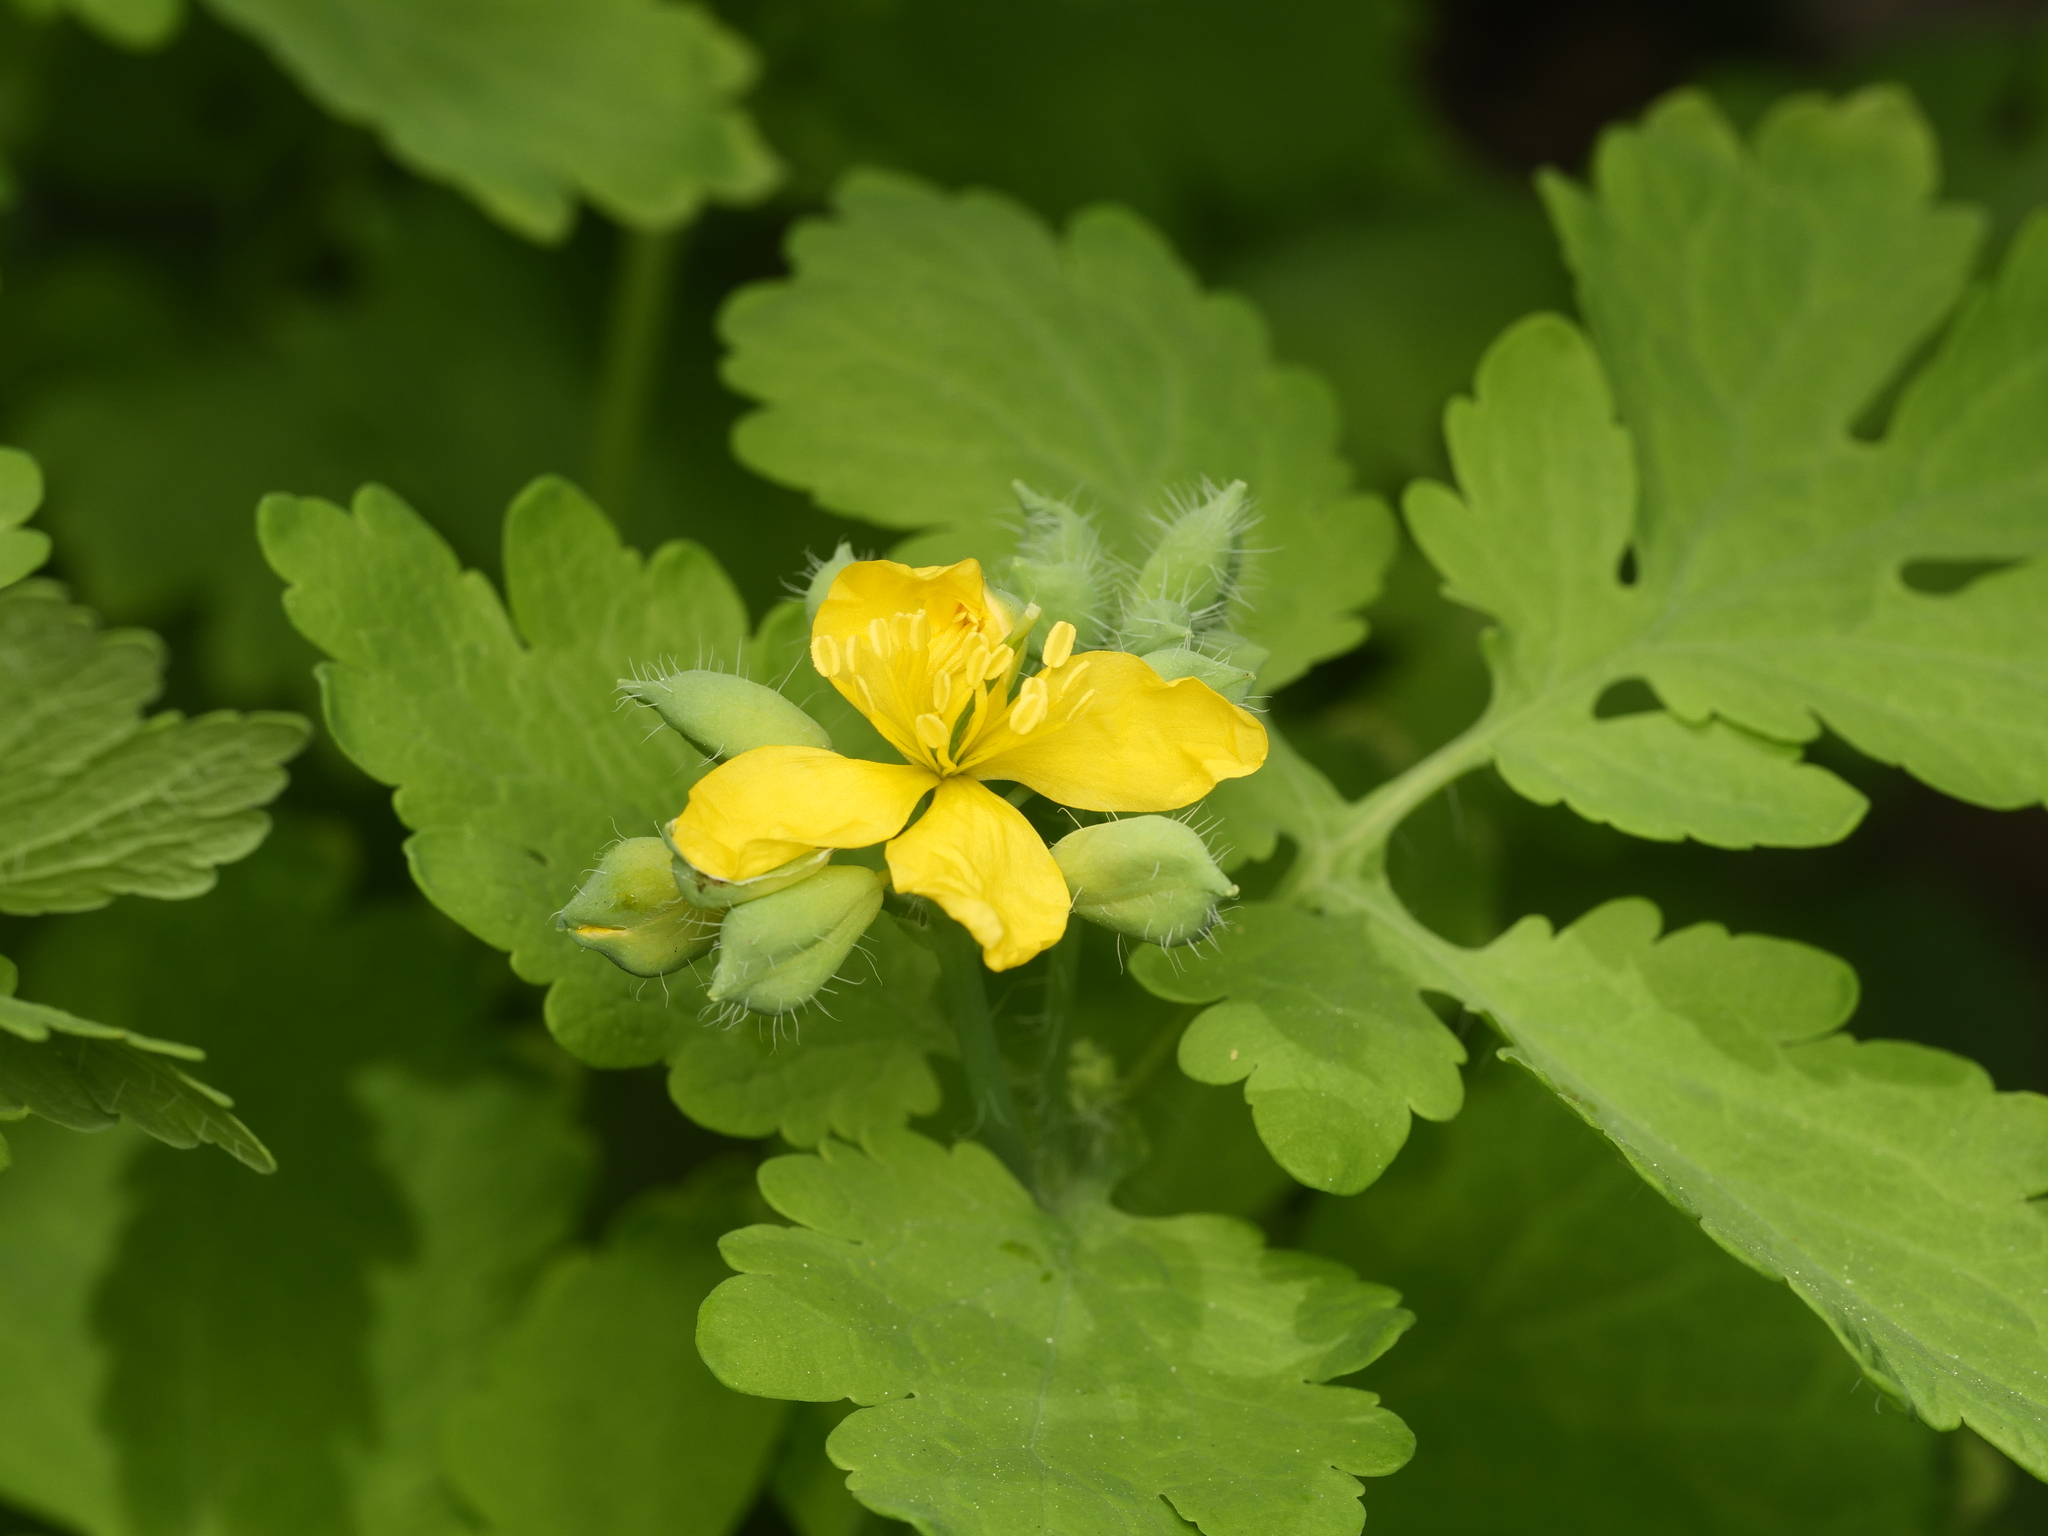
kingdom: Plantae
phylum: Tracheophyta
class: Magnoliopsida
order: Ranunculales
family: Papaveraceae
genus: Chelidonium
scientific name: Chelidonium majus
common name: Greater celandine
